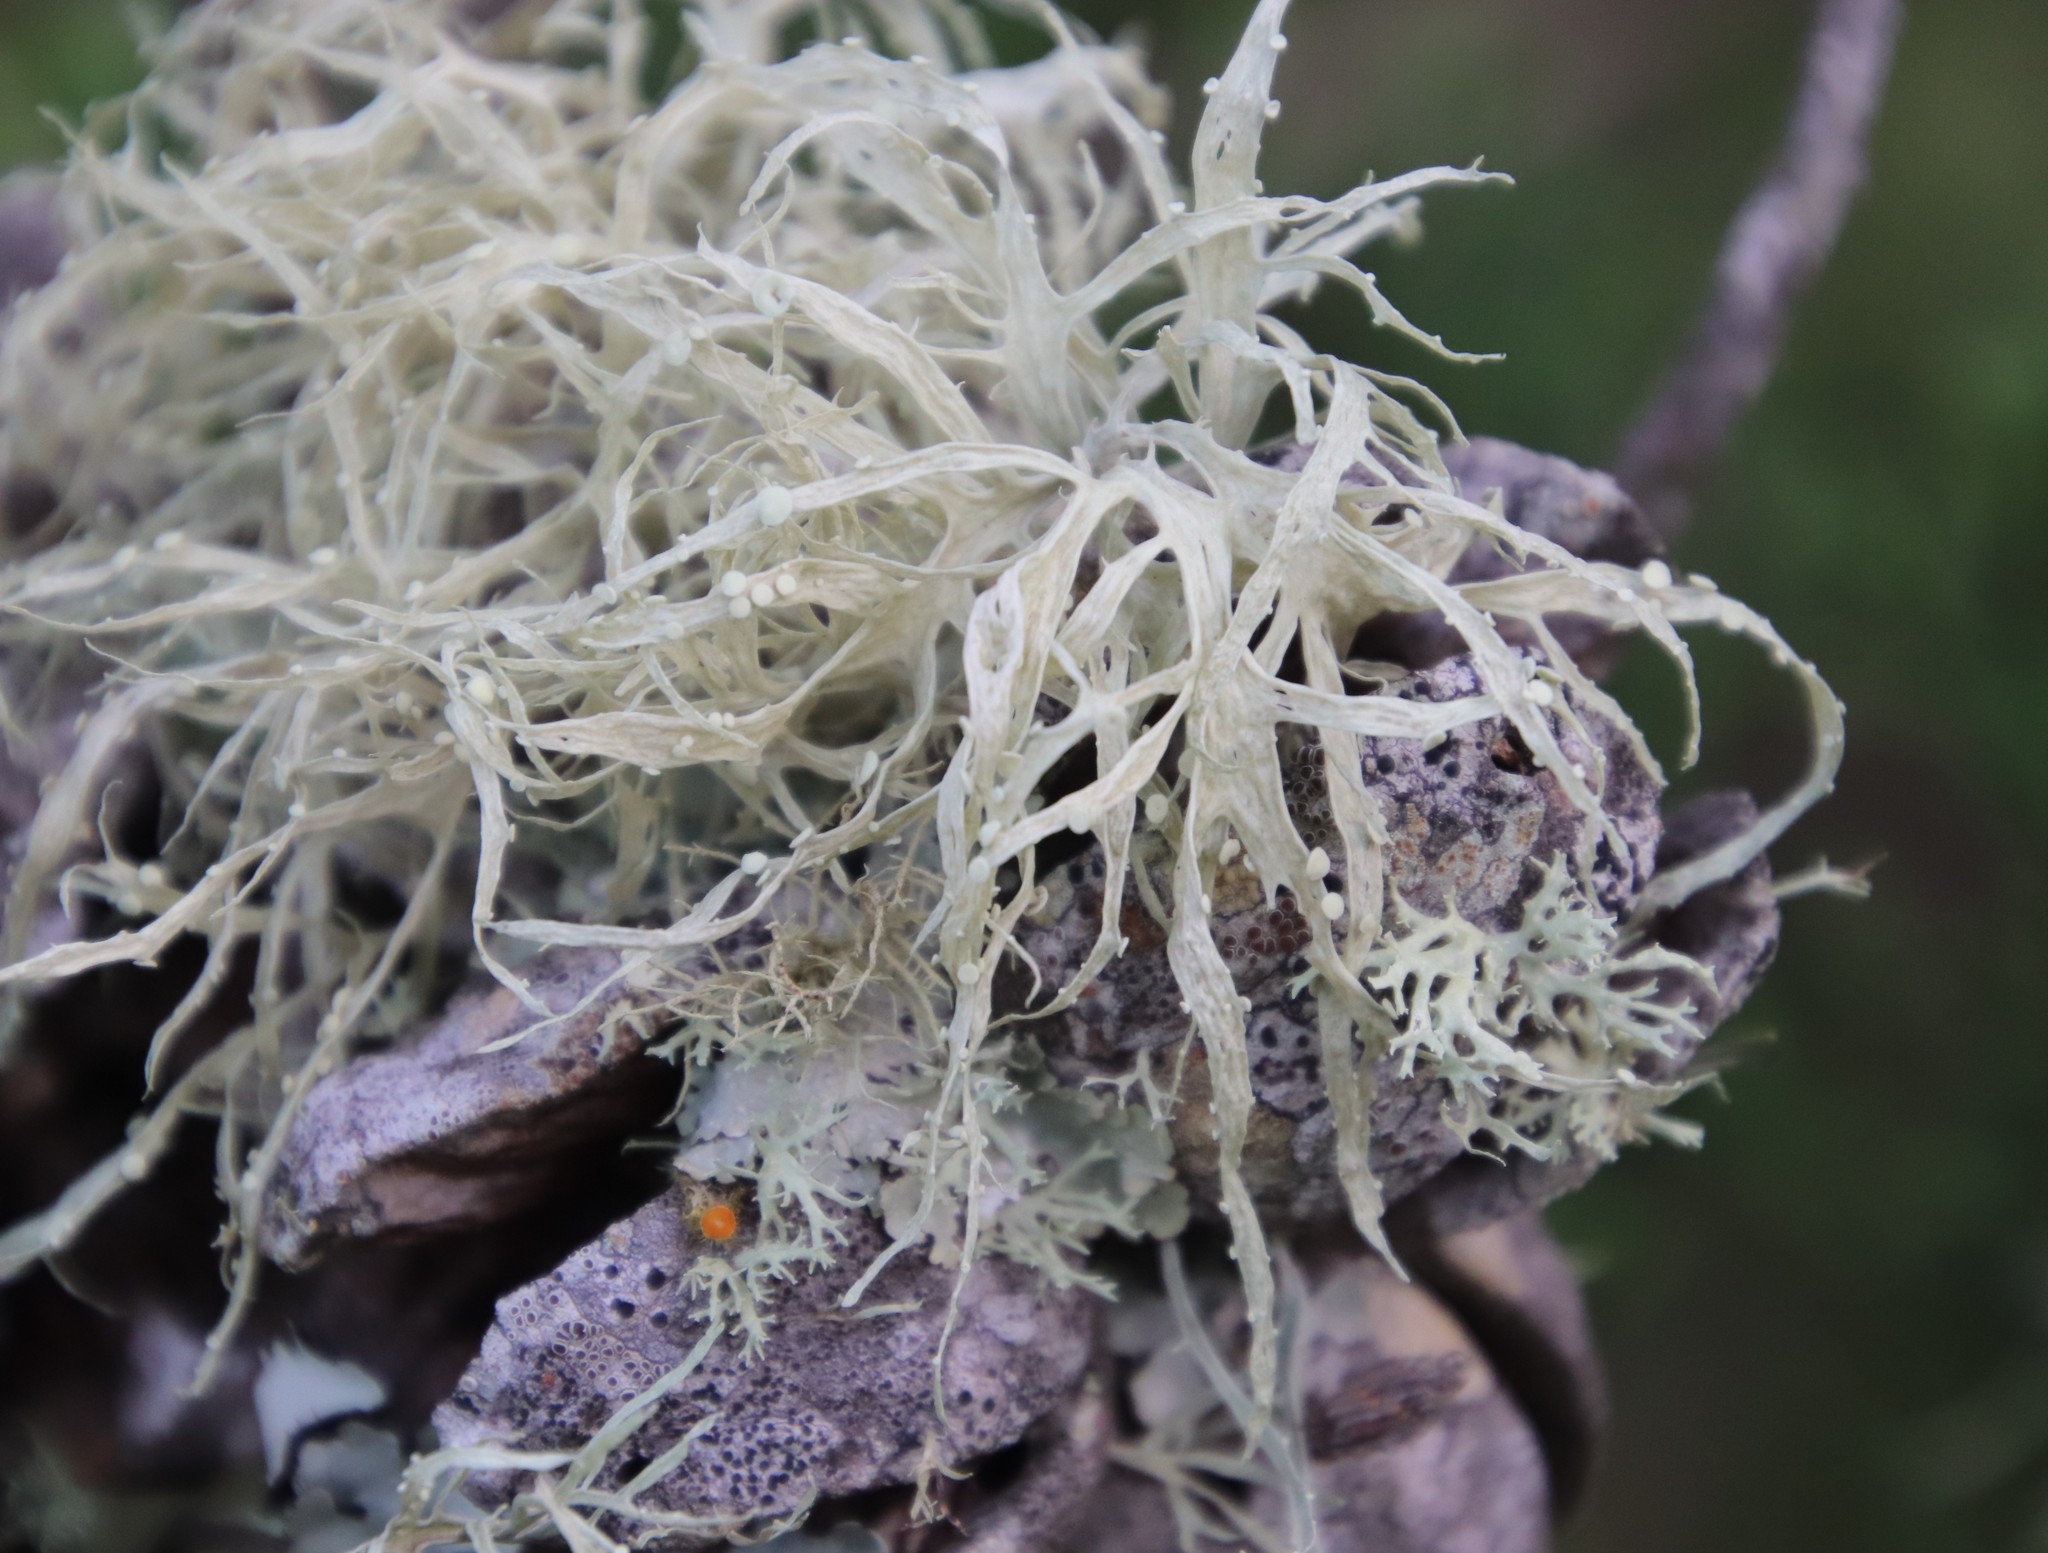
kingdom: Fungi
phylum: Ascomycota
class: Lecanoromycetes
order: Lecanorales
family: Ramalinaceae
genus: Ramalina
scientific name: Ramalina celastri
